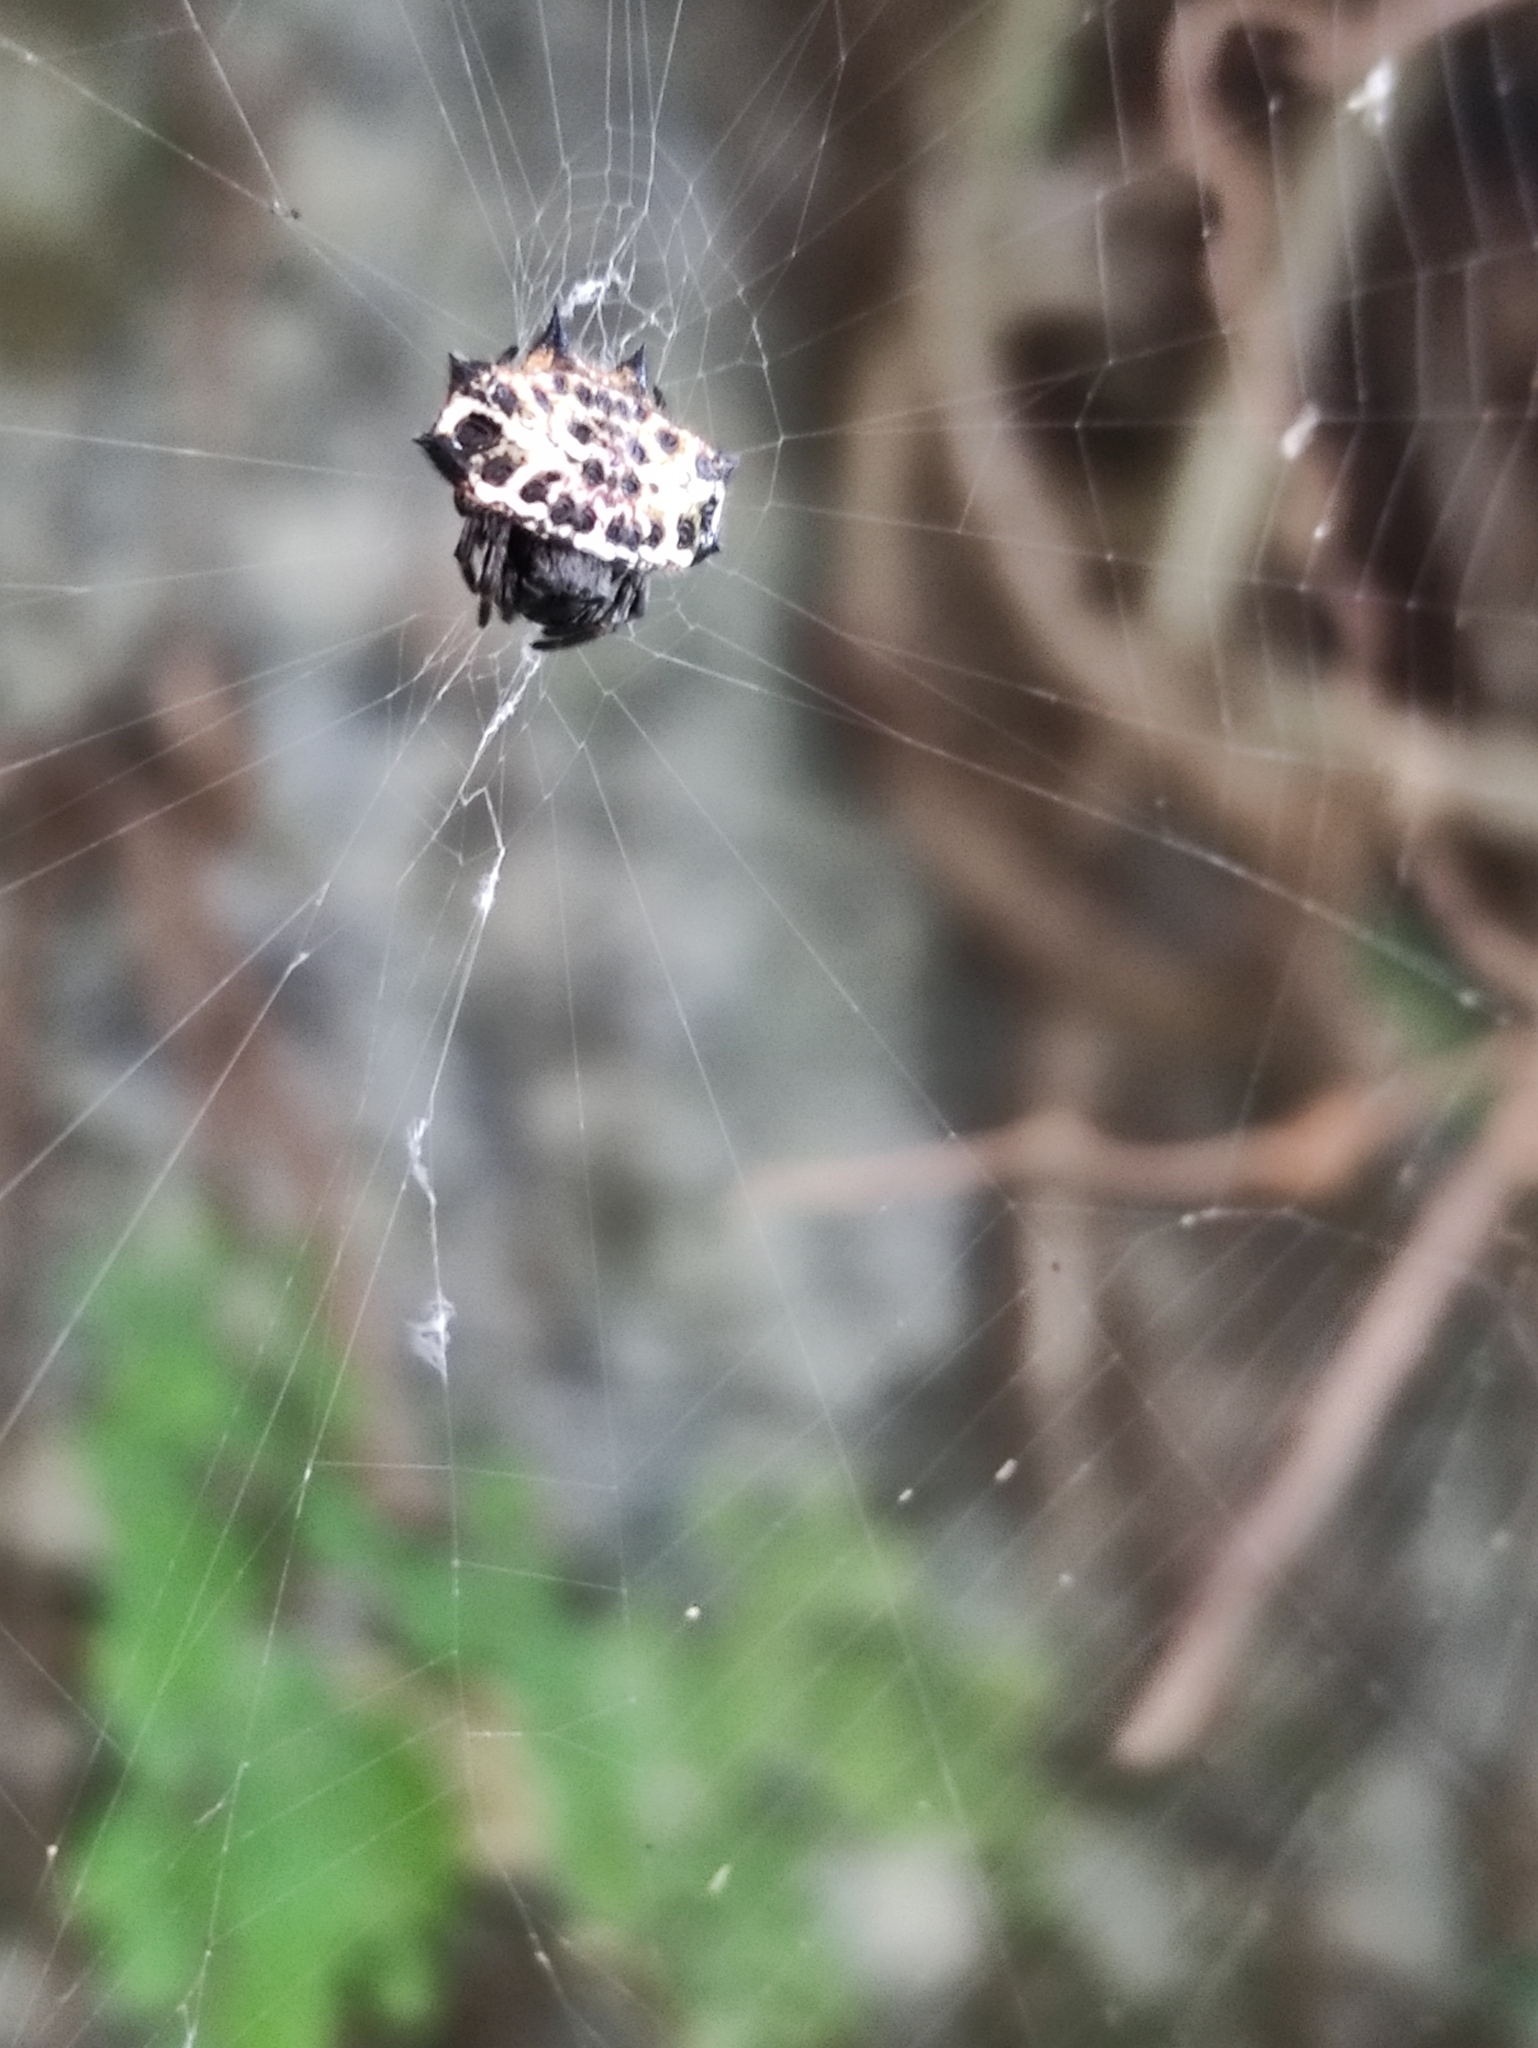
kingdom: Animalia
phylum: Arthropoda
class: Arachnida
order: Araneae
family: Araneidae
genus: Gasteracantha
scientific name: Gasteracantha cancriformis
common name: Orb weavers
